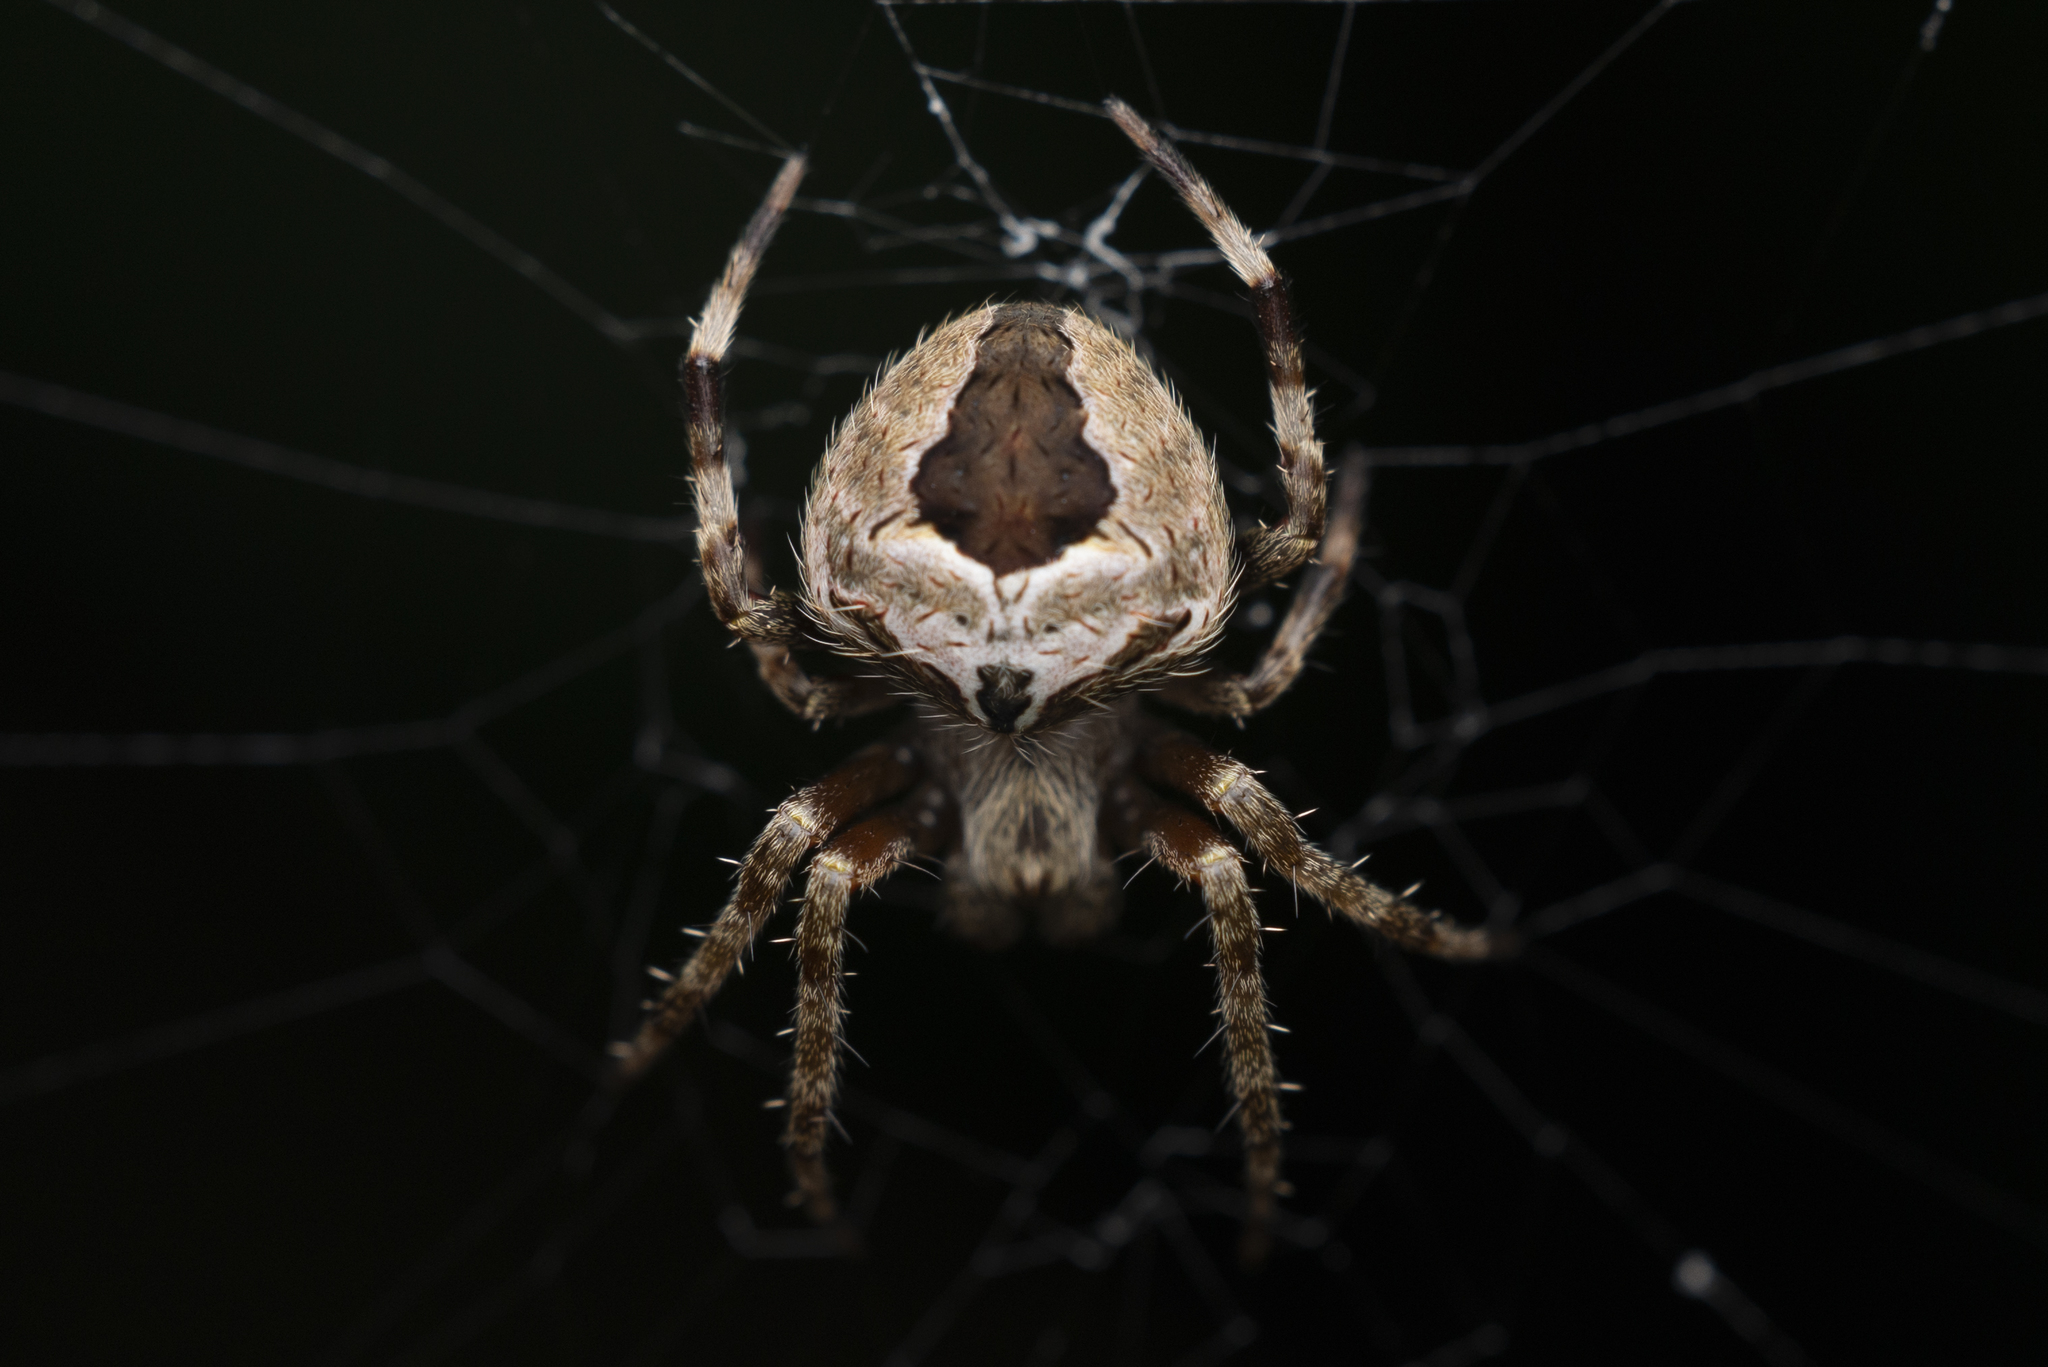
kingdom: Animalia
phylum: Arthropoda
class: Arachnida
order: Araneae
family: Araneidae
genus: Neoscona
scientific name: Neoscona vigilans
